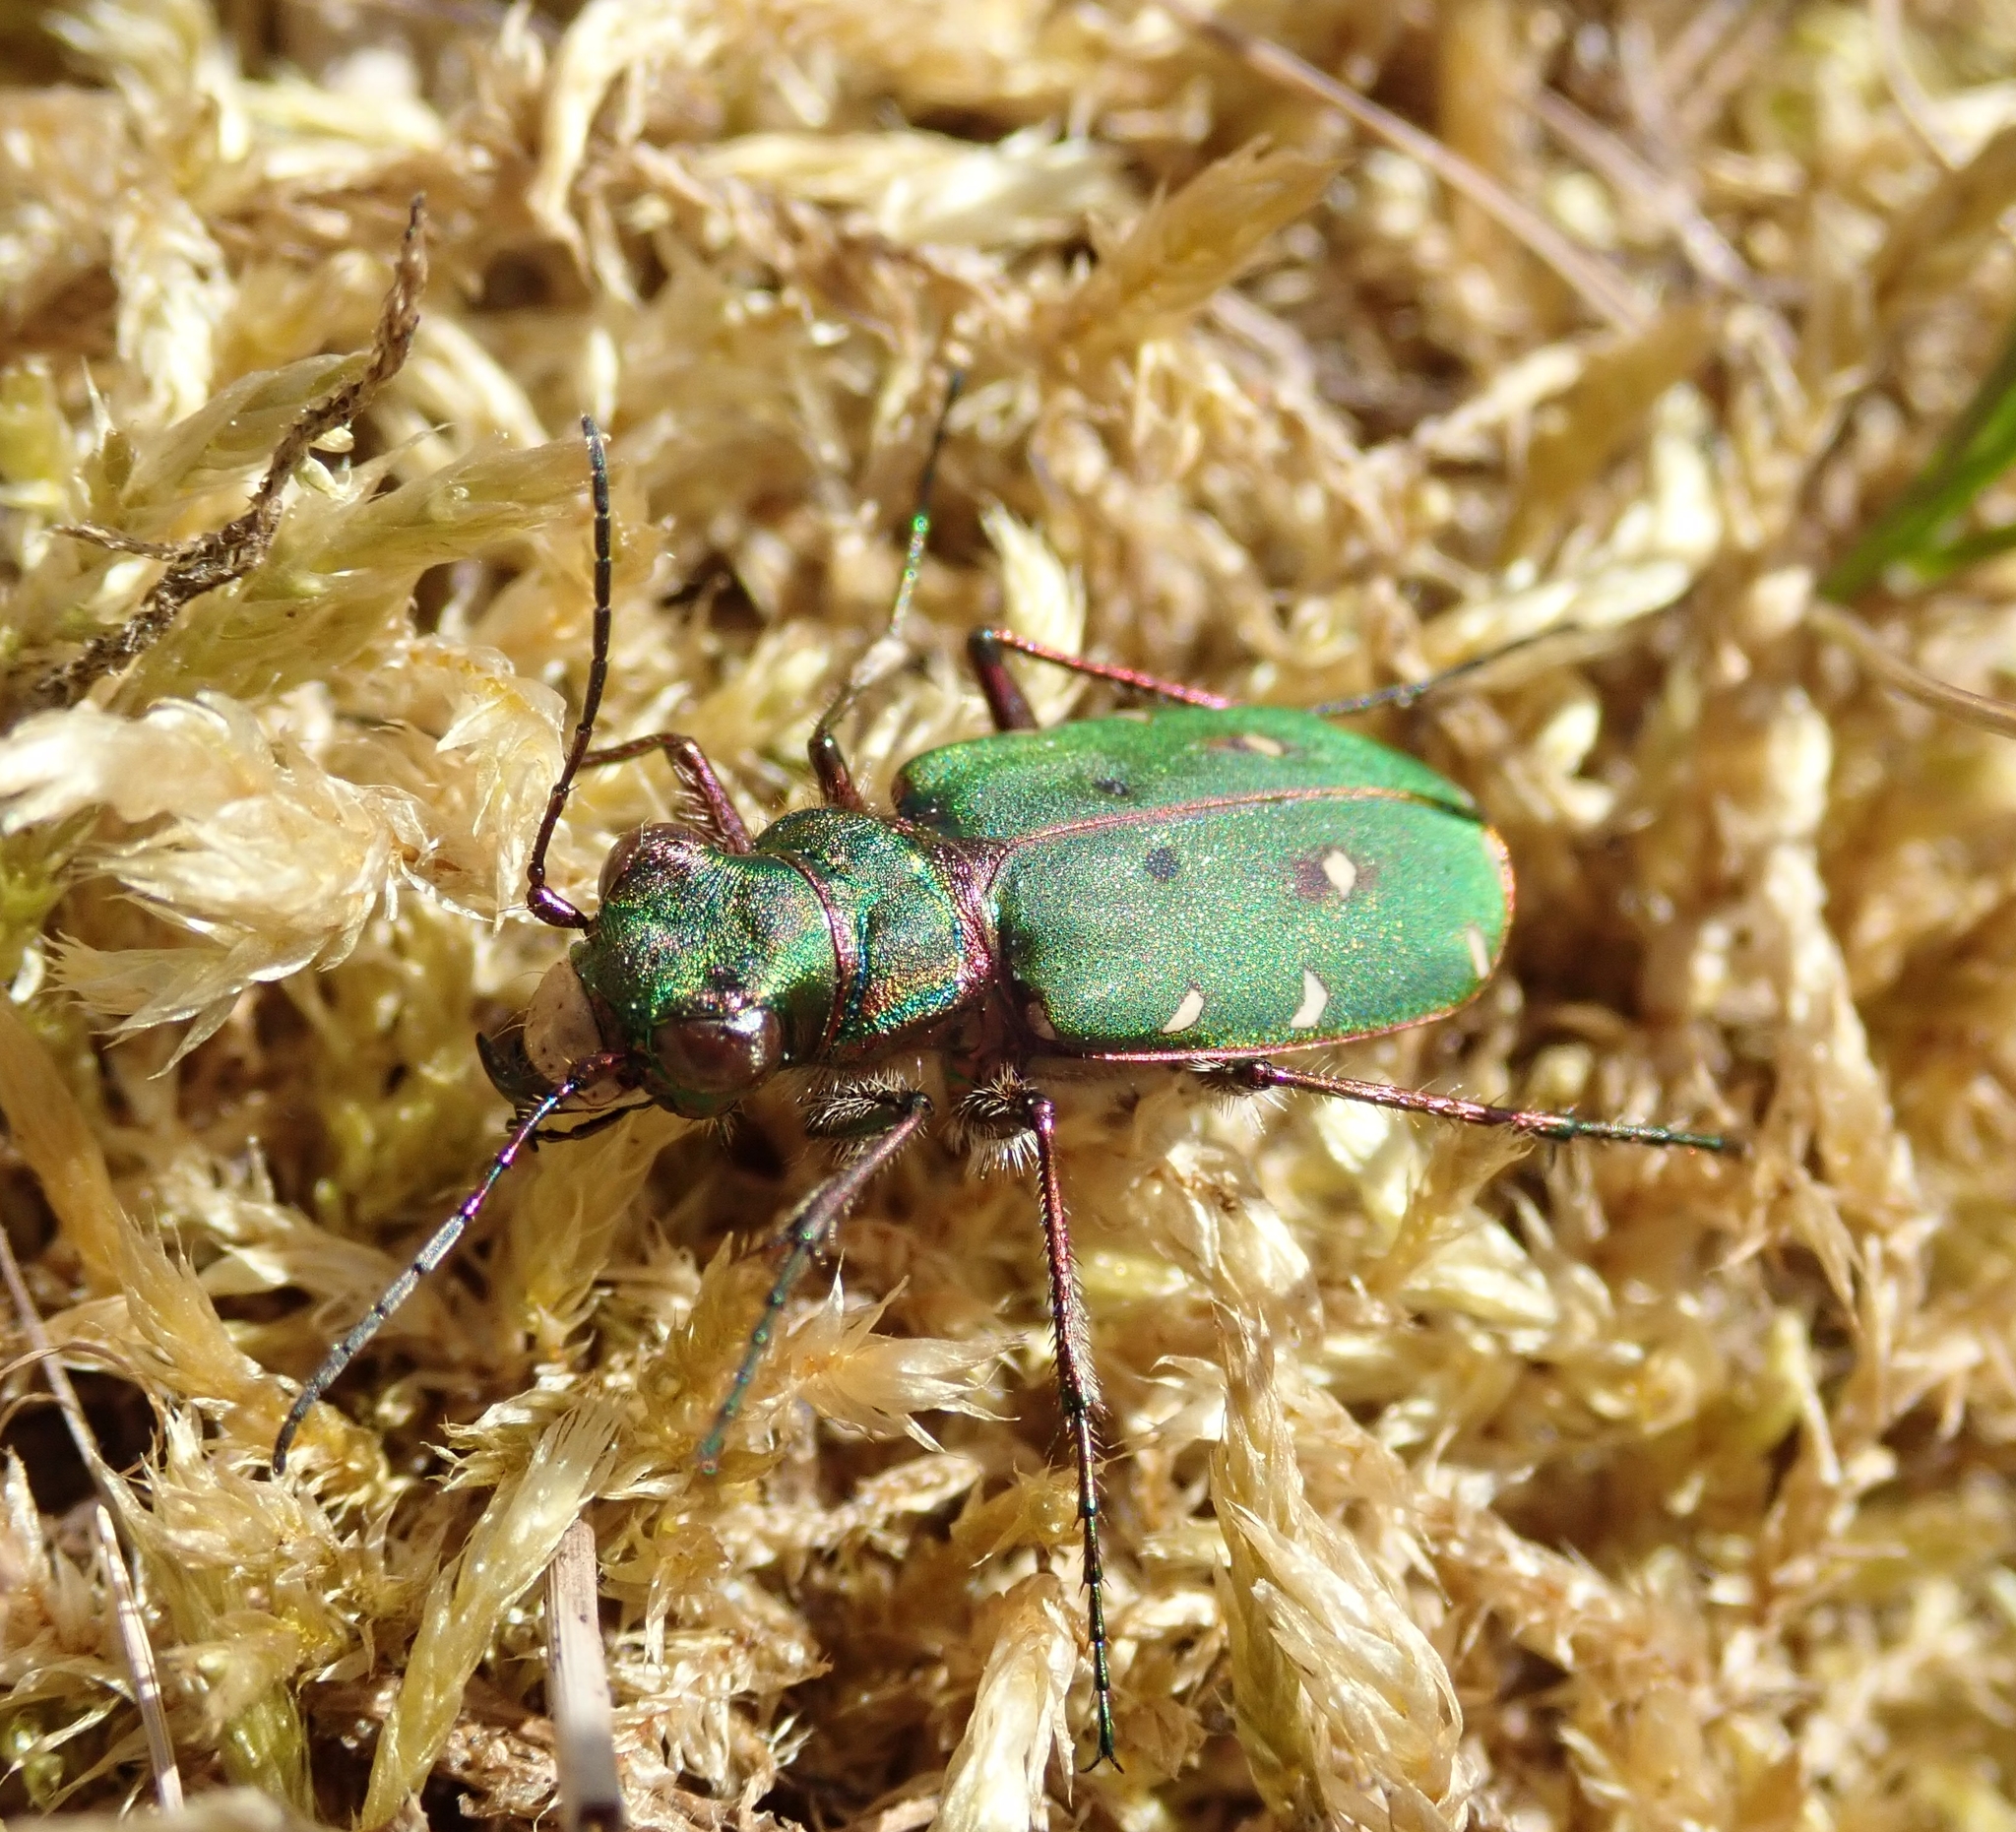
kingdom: Animalia
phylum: Arthropoda
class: Insecta
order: Coleoptera
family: Carabidae
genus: Cicindela
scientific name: Cicindela campestris
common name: Common tiger beetle
